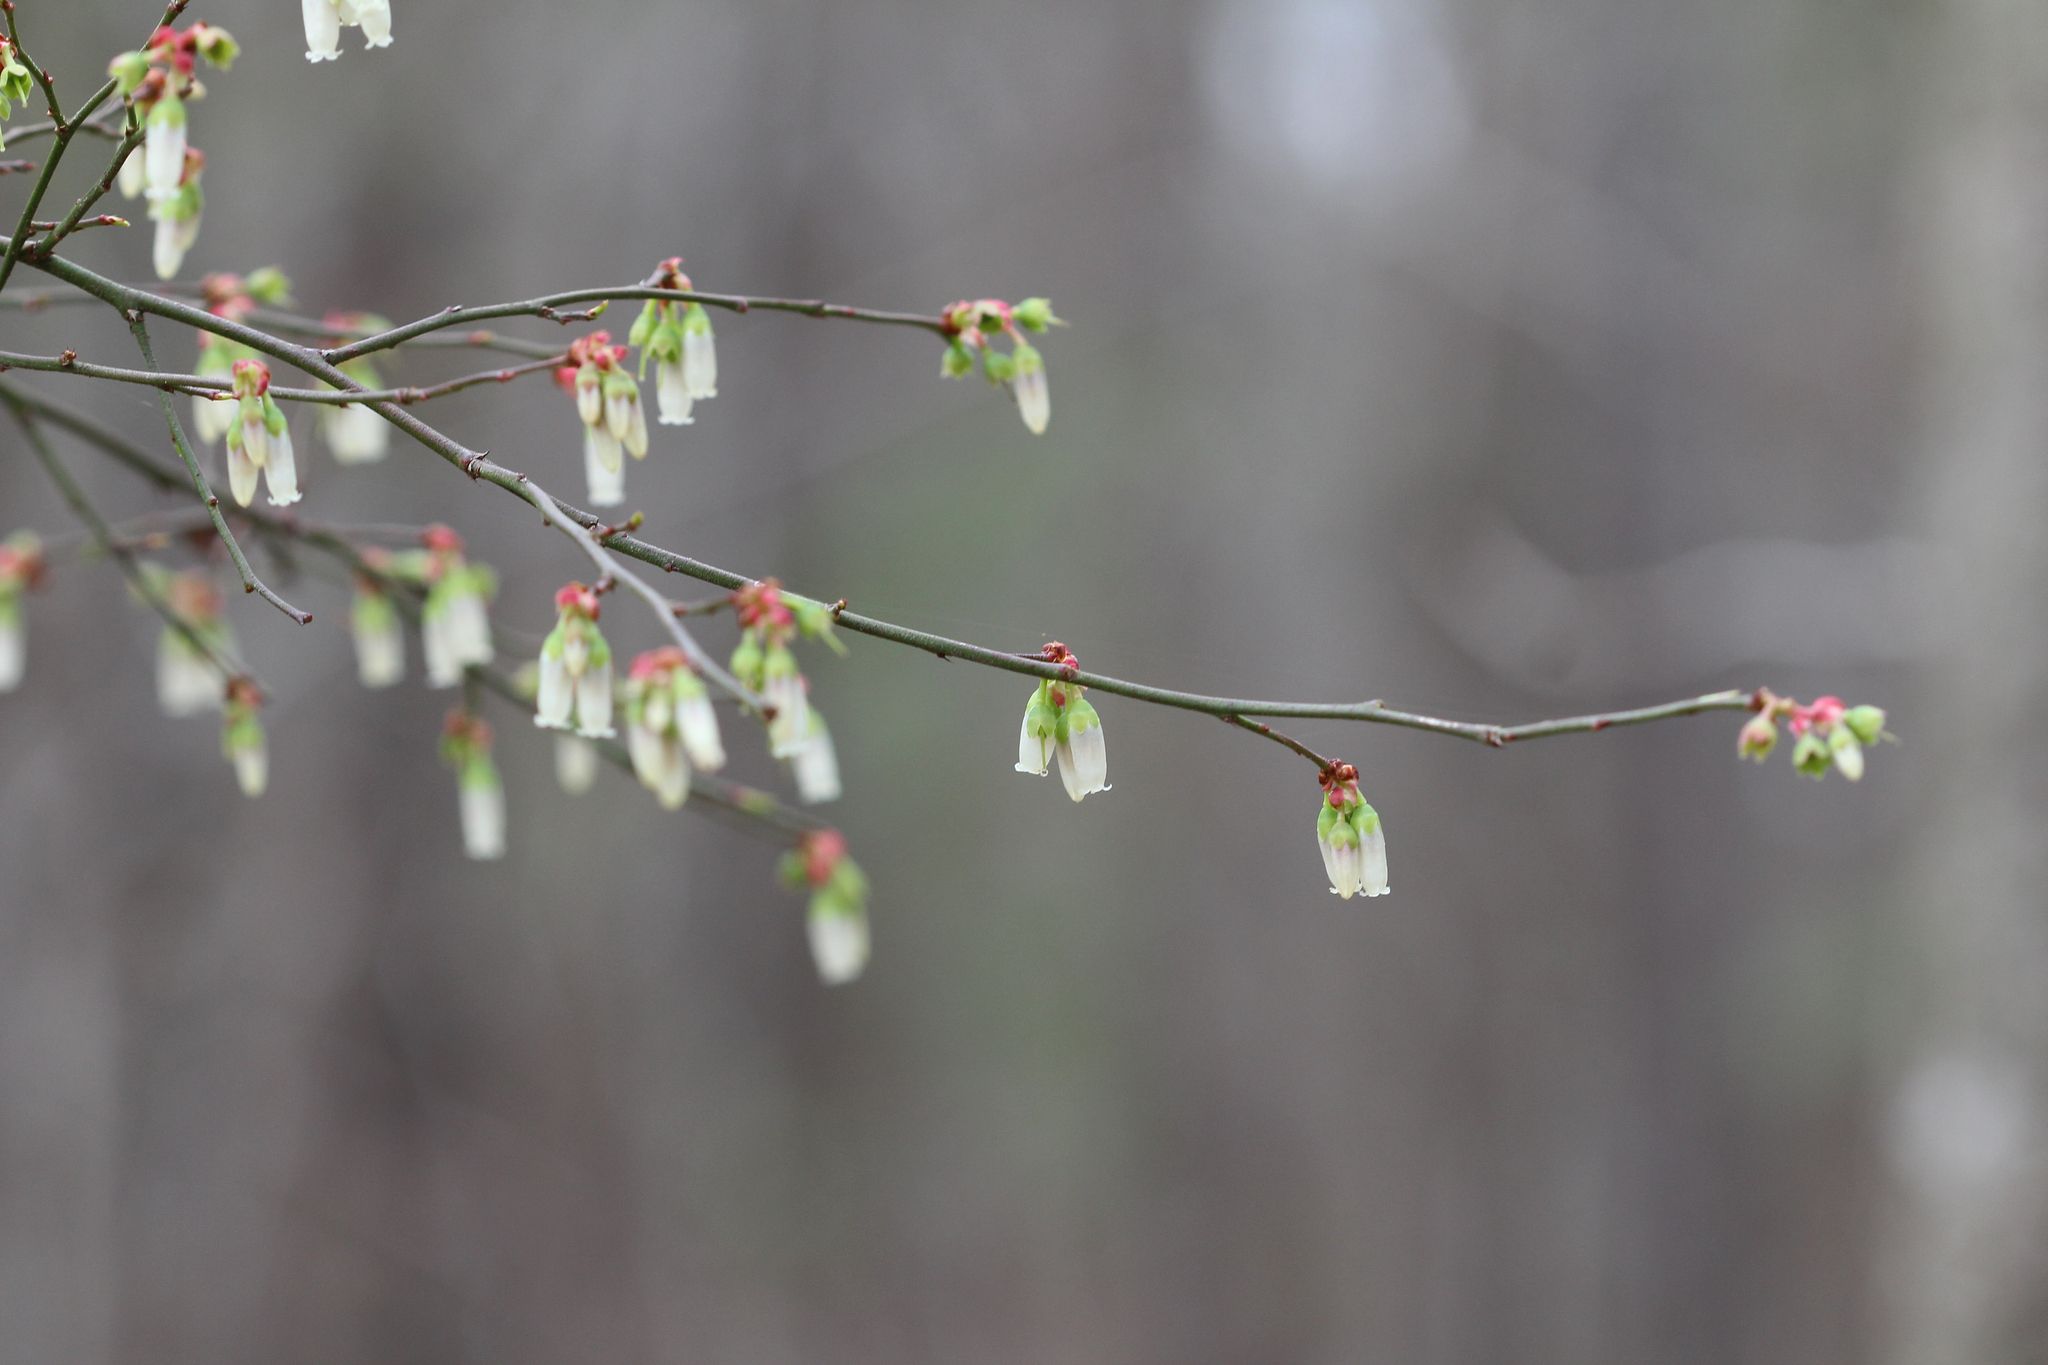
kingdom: Plantae
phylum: Tracheophyta
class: Magnoliopsida
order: Ericales
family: Ericaceae
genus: Vaccinium
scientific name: Vaccinium corymbosum
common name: Blueberry
